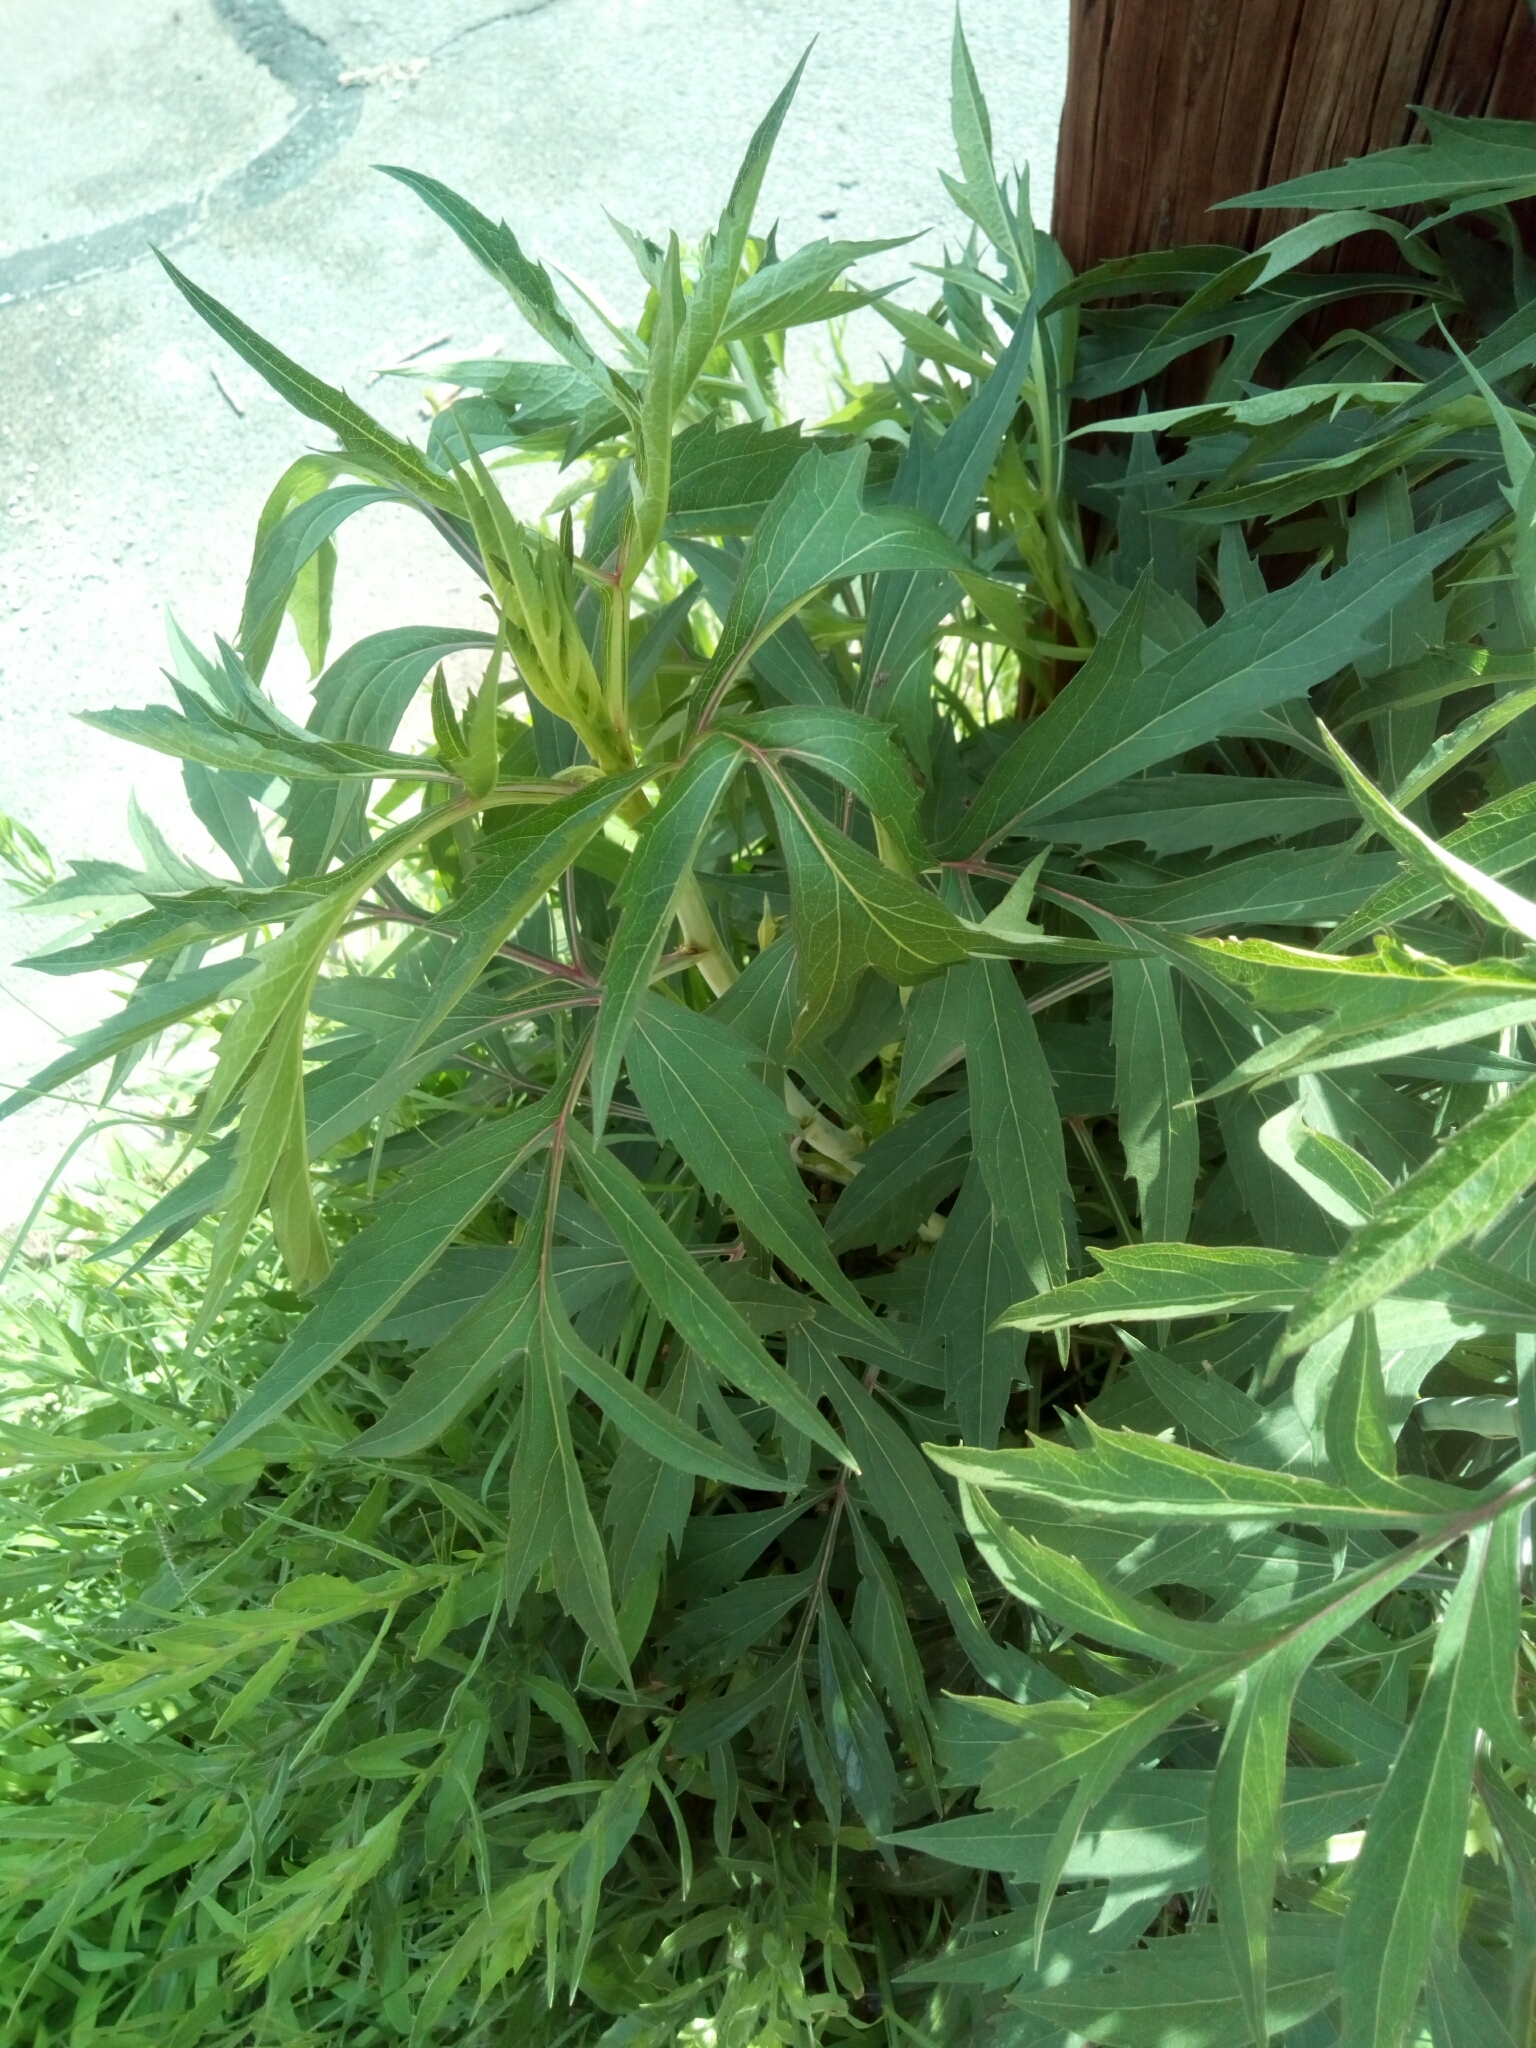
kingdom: Plantae
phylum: Tracheophyta
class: Magnoliopsida
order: Asterales
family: Asteraceae
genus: Rudbeckia
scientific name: Rudbeckia laciniata
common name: Coneflower
